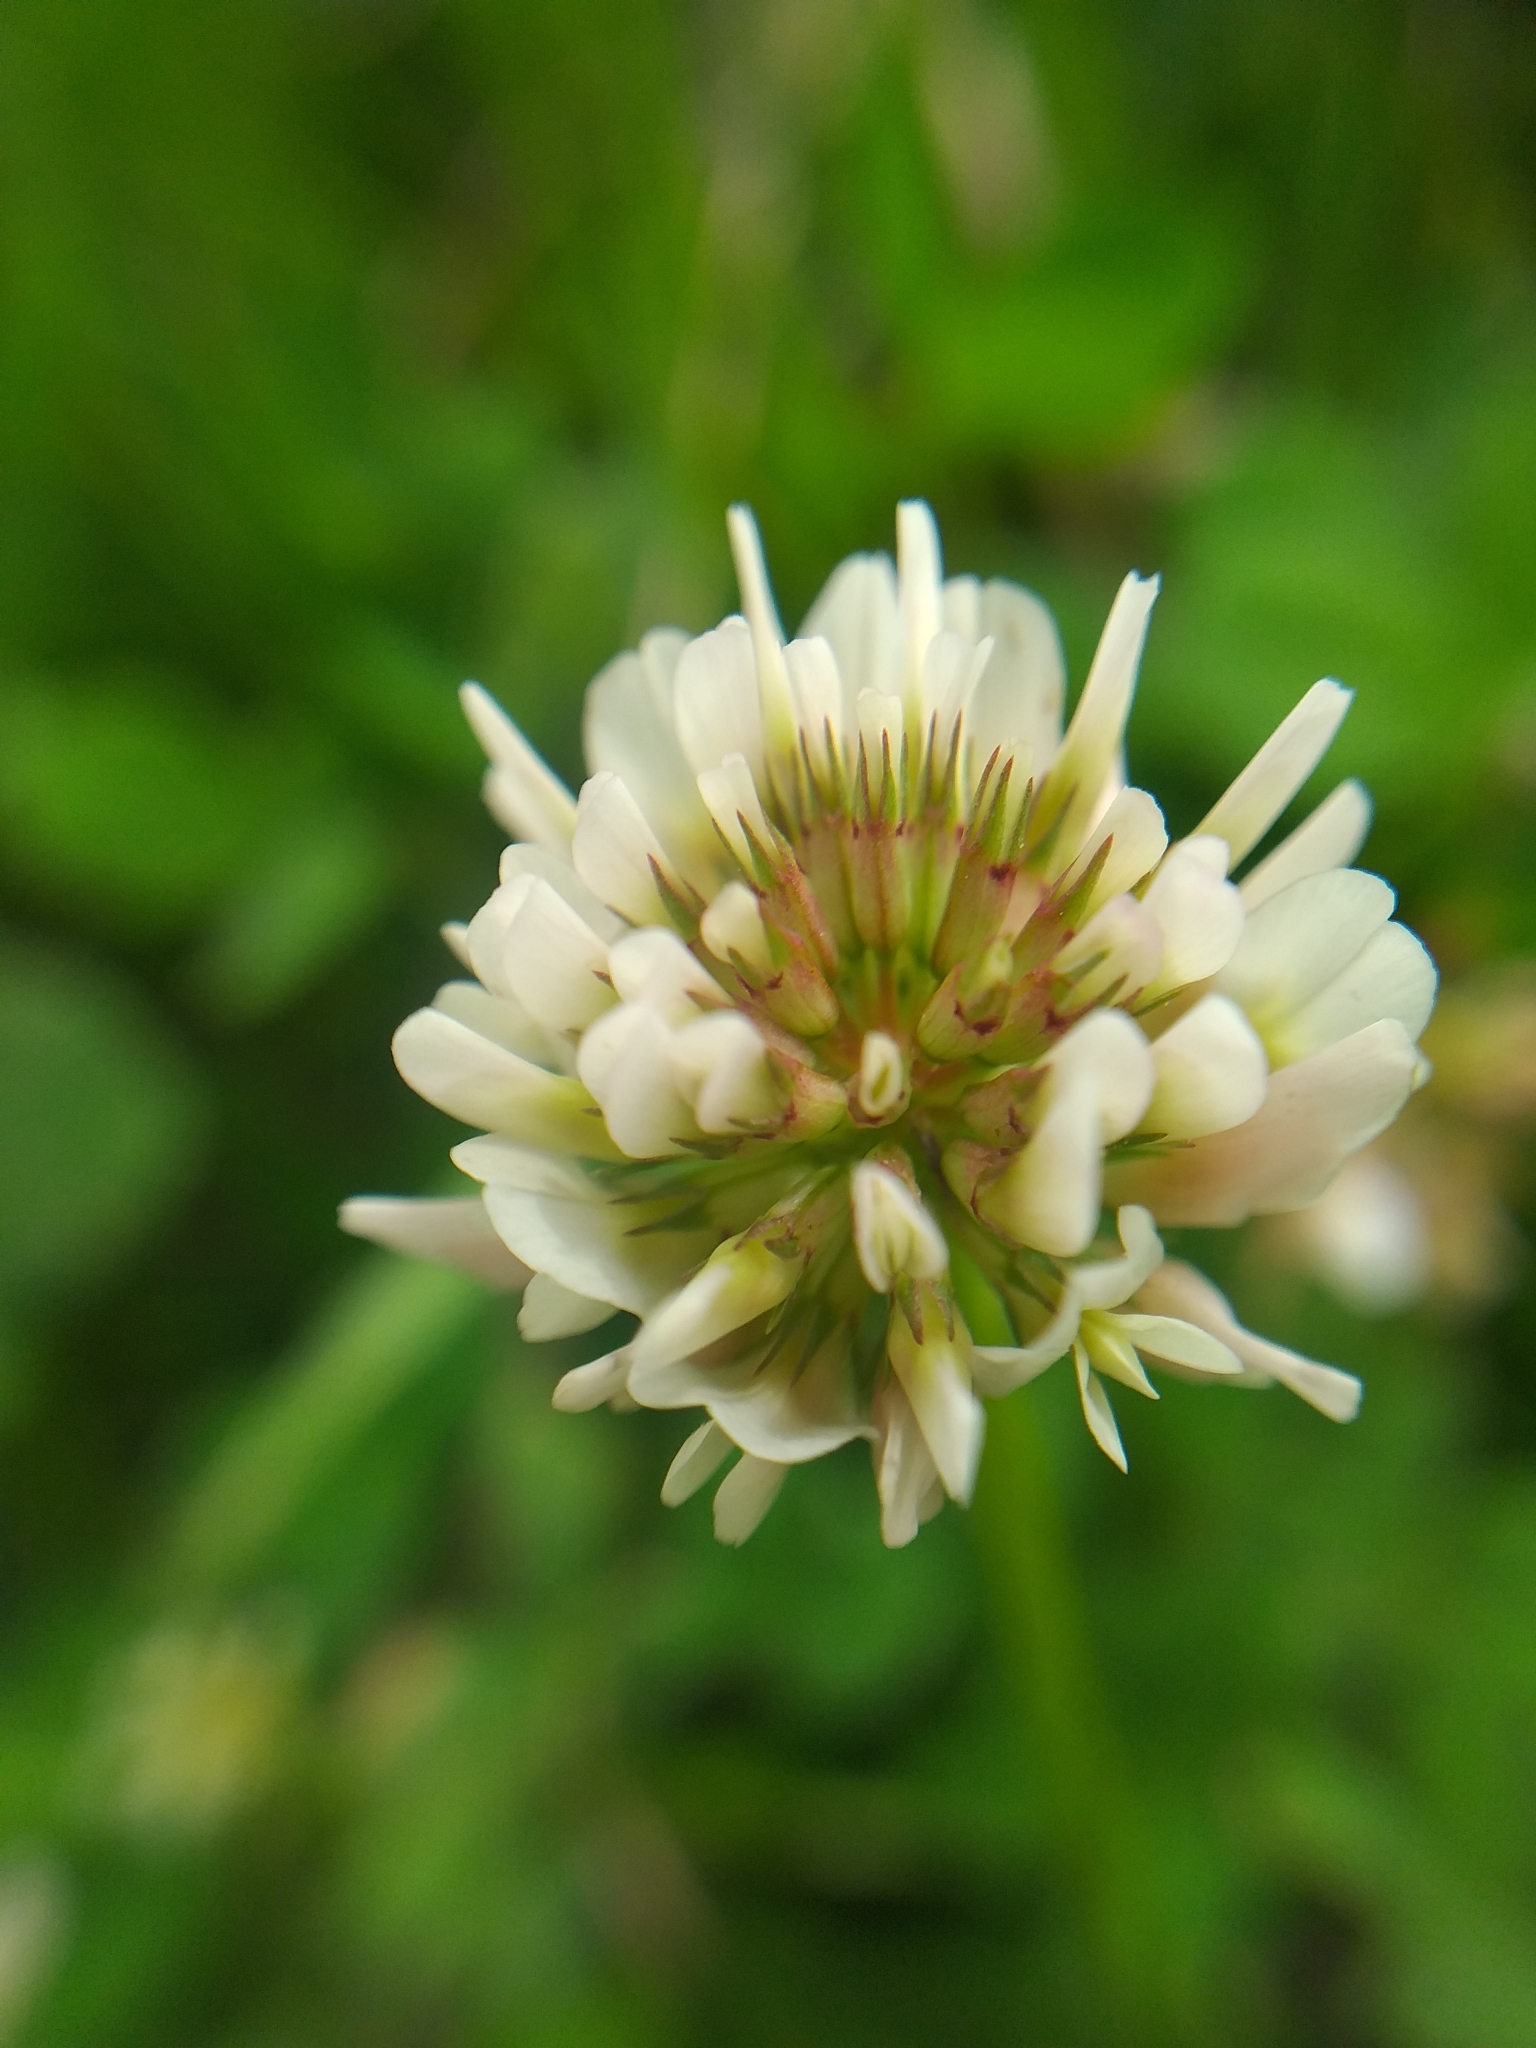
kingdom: Plantae
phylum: Tracheophyta
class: Magnoliopsida
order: Fabales
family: Fabaceae
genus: Trifolium
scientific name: Trifolium repens
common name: White clover
